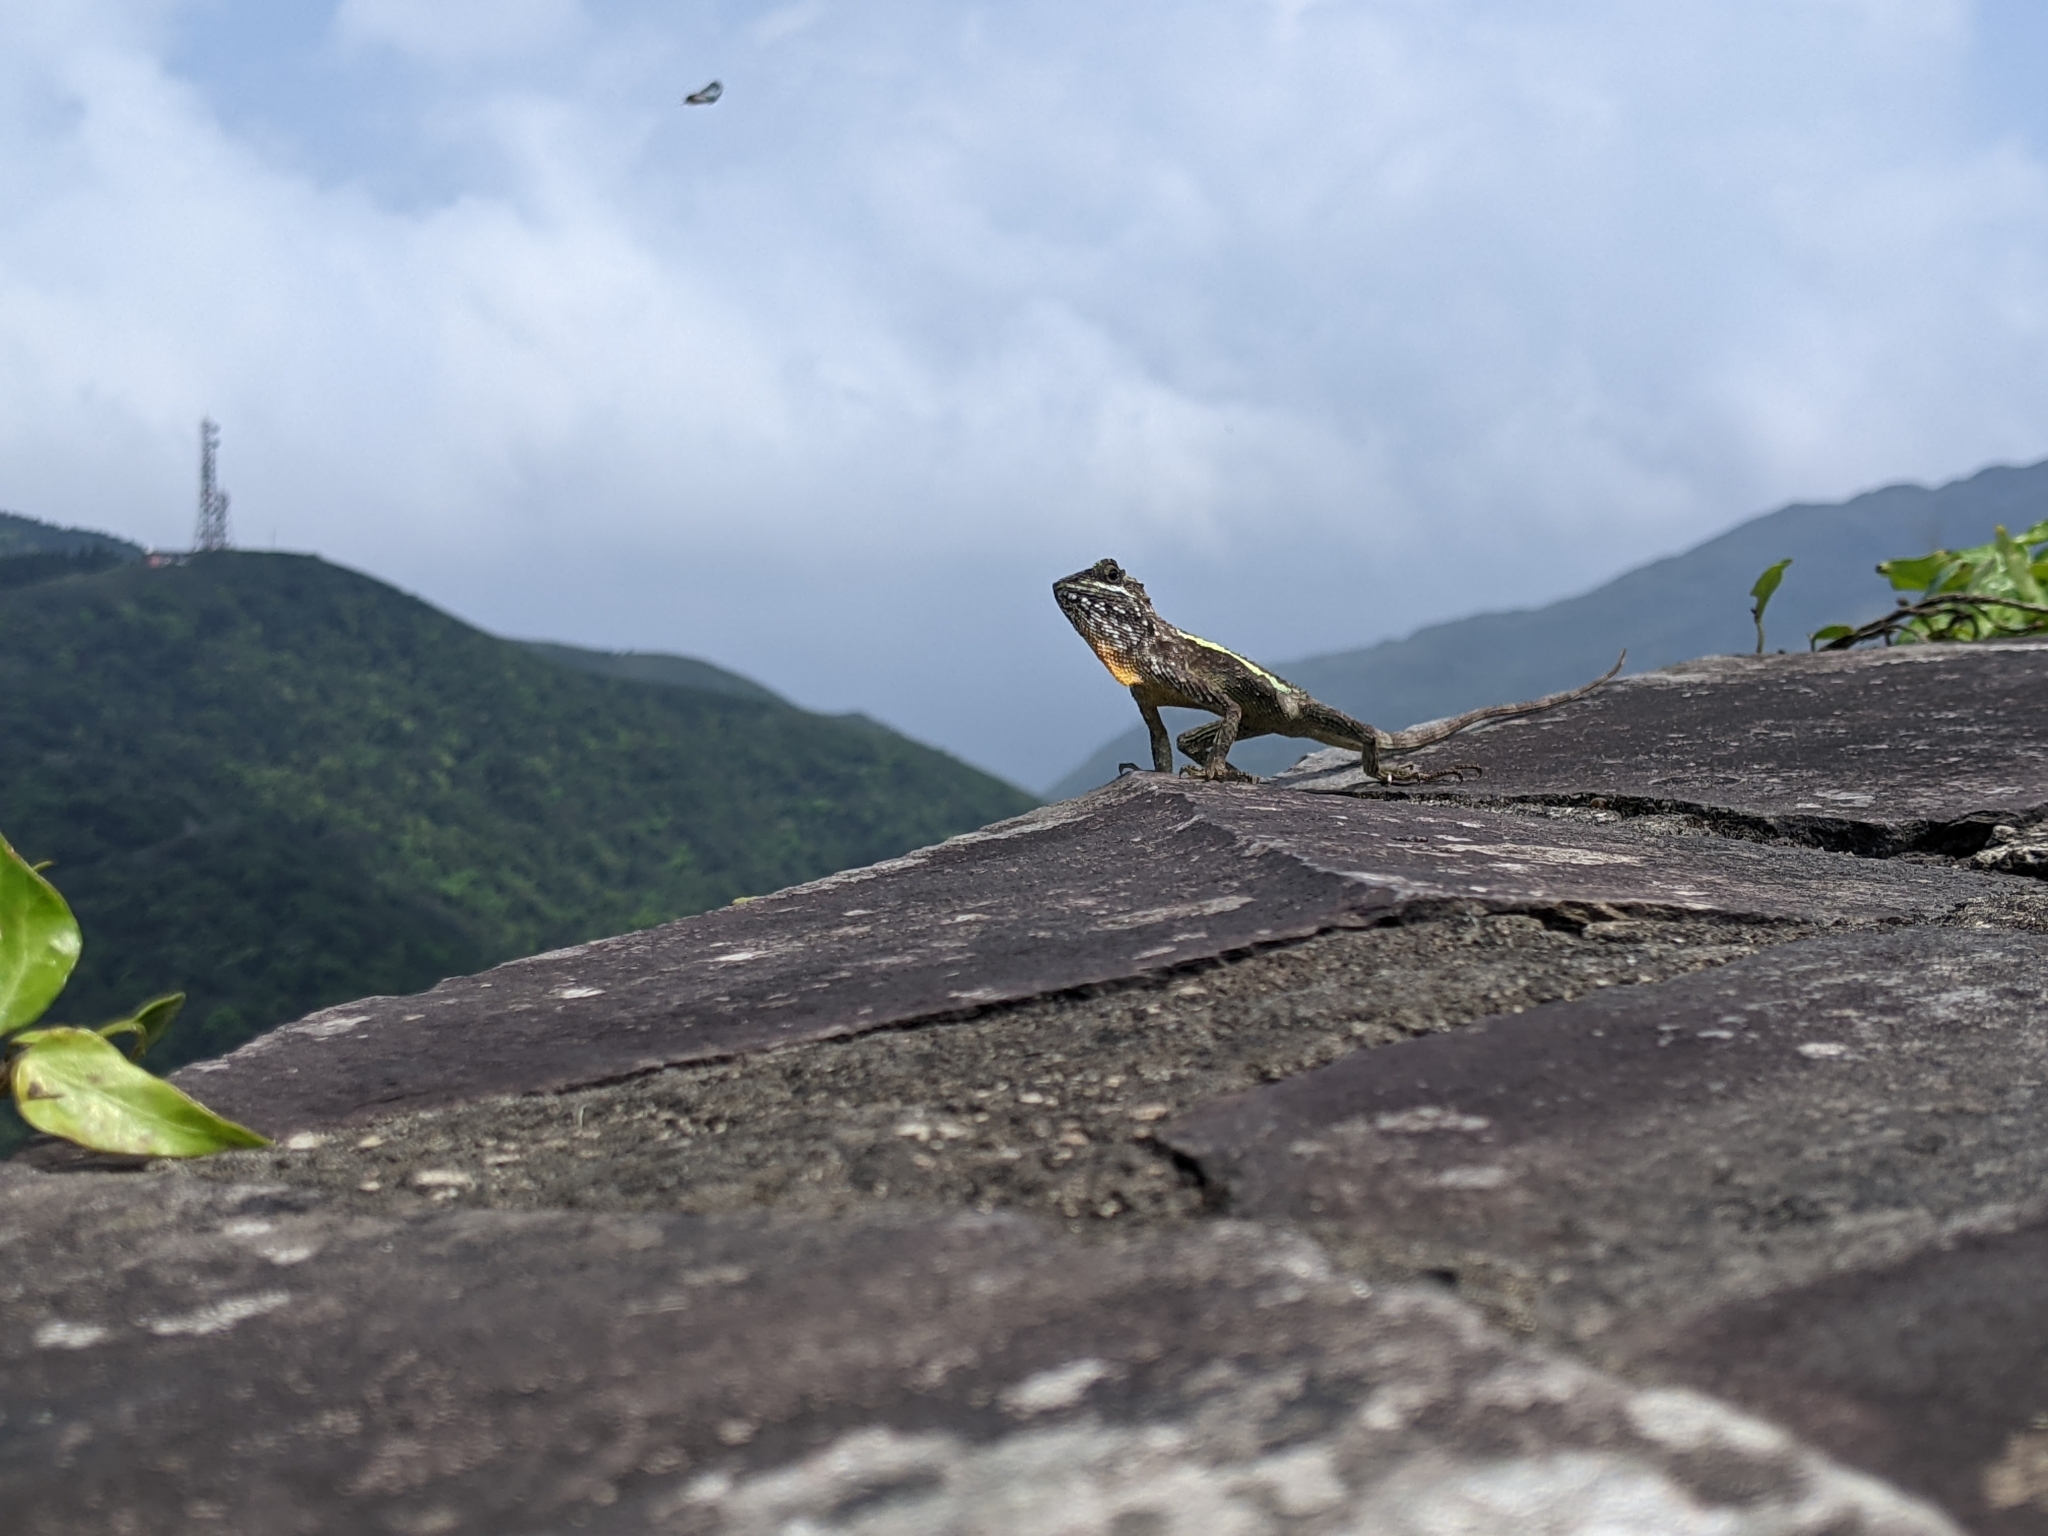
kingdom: Fungi
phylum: Basidiomycota
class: Agaricomycetes
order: Boletales
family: Diplocystidiaceae
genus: Diploderma
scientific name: Diploderma polygonatum
